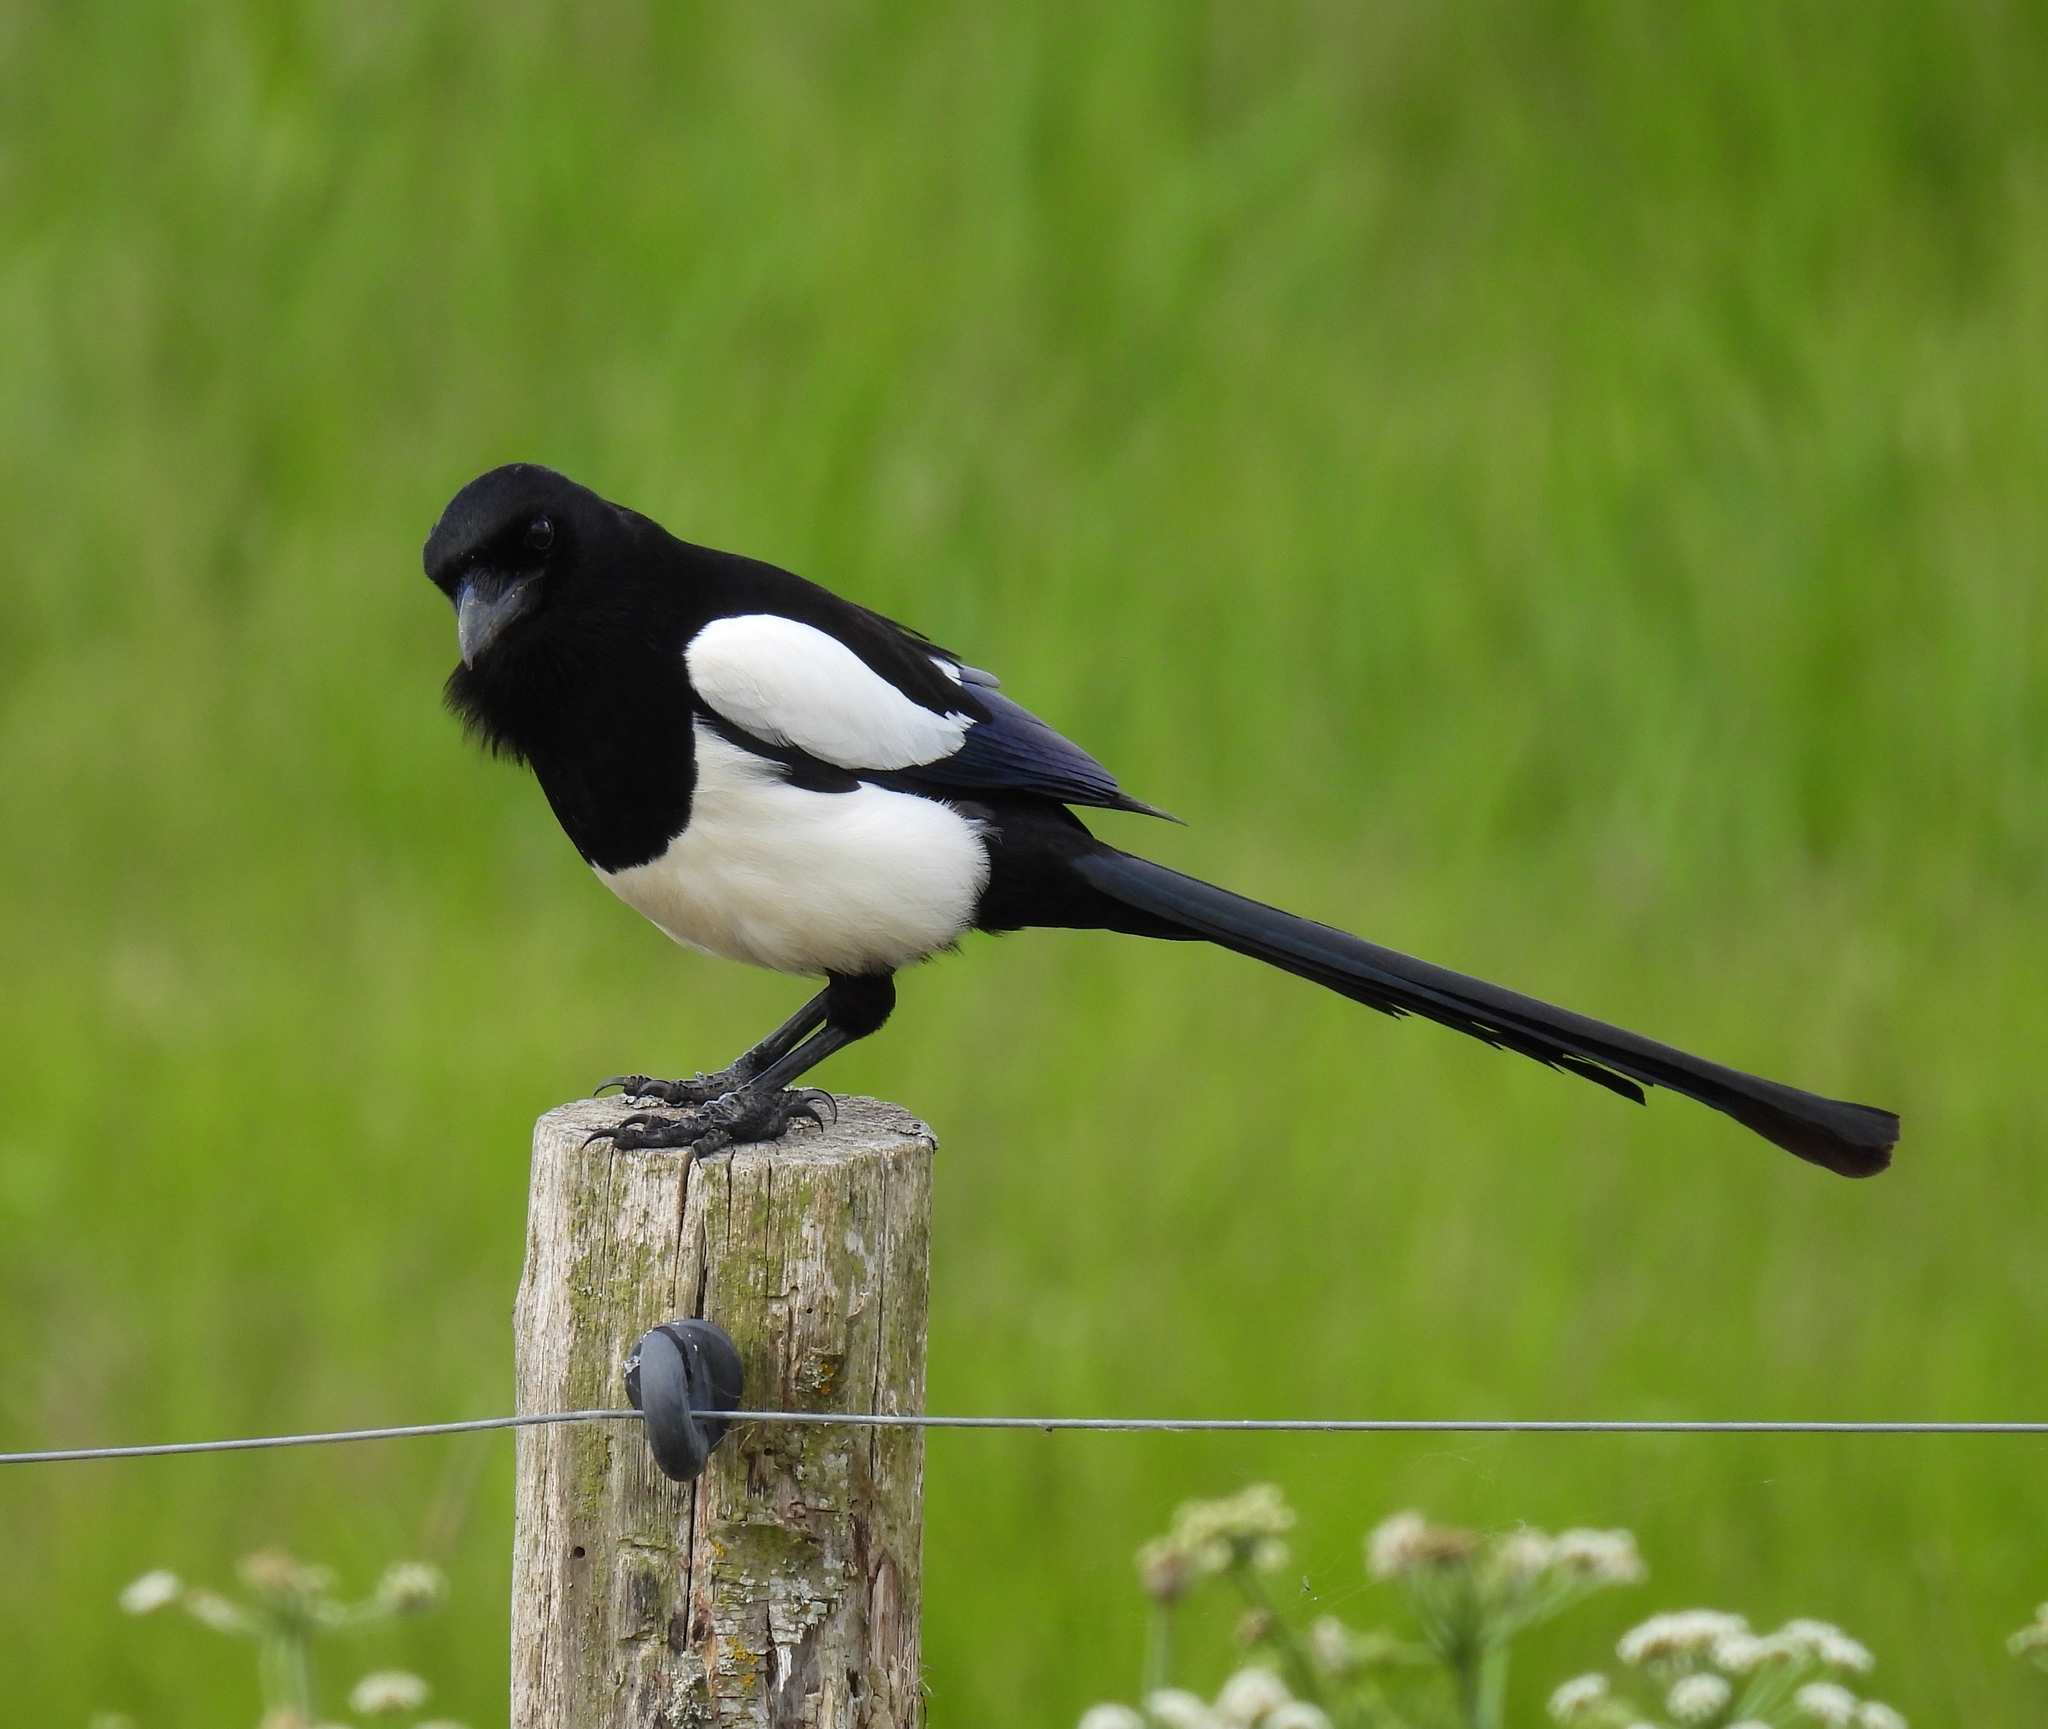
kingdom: Animalia
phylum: Chordata
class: Aves
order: Passeriformes
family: Corvidae
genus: Pica
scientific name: Pica pica
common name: Eurasian magpie
